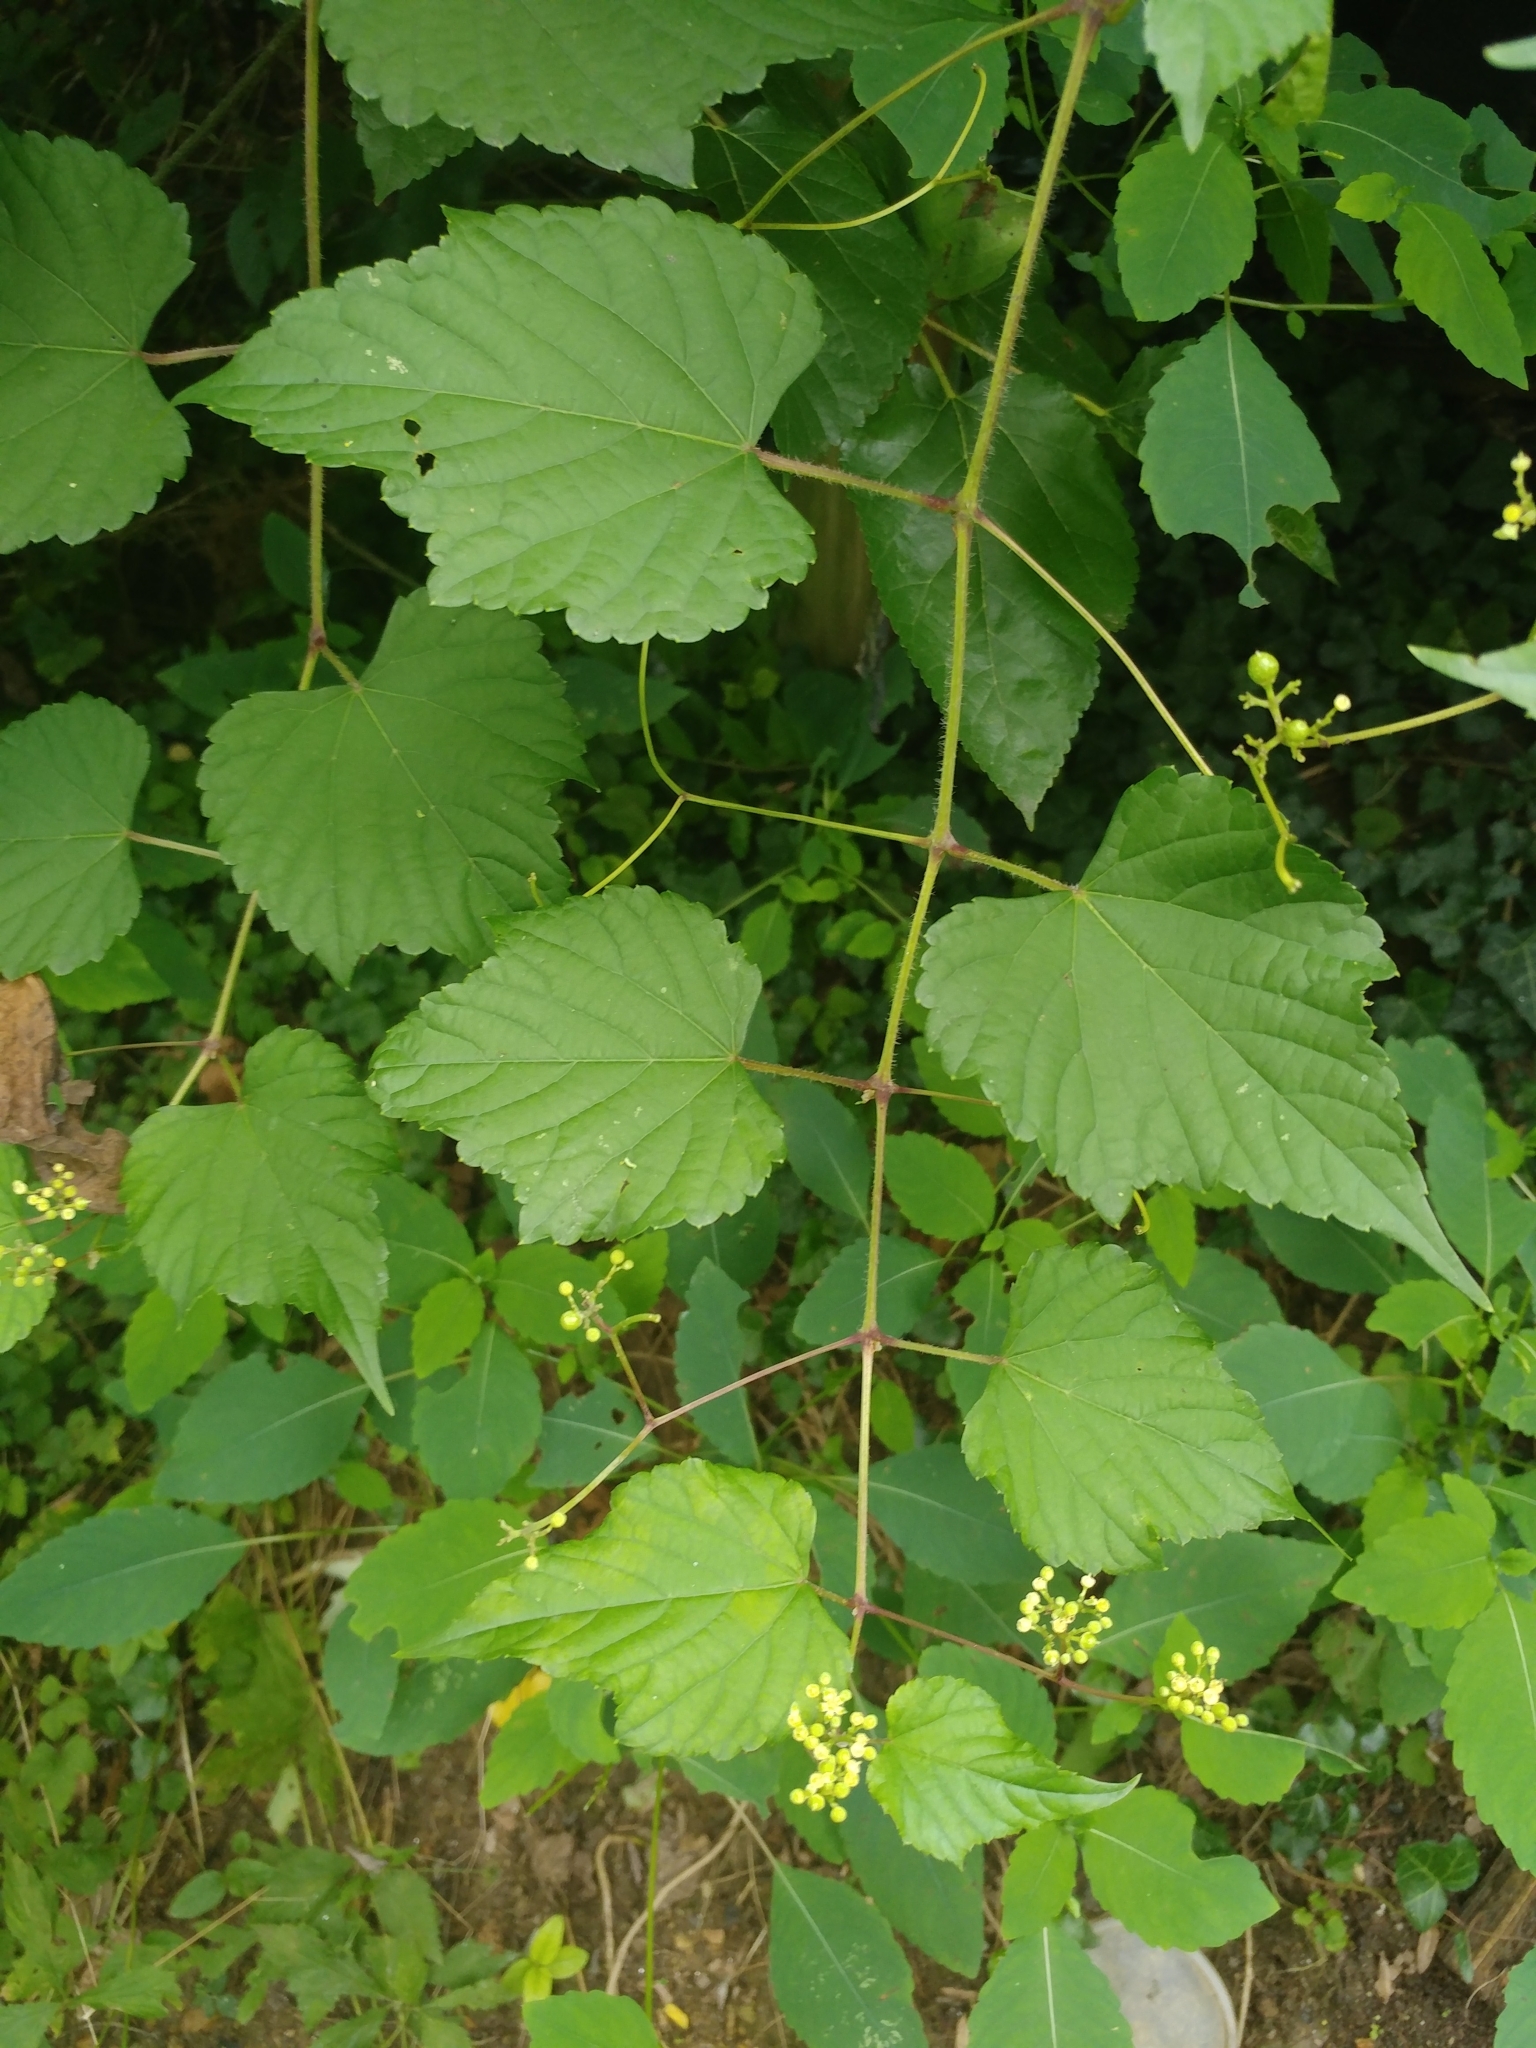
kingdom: Plantae
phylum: Tracheophyta
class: Magnoliopsida
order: Vitales
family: Vitaceae
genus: Ampelopsis
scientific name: Ampelopsis glandulosa
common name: Amur peppervine
